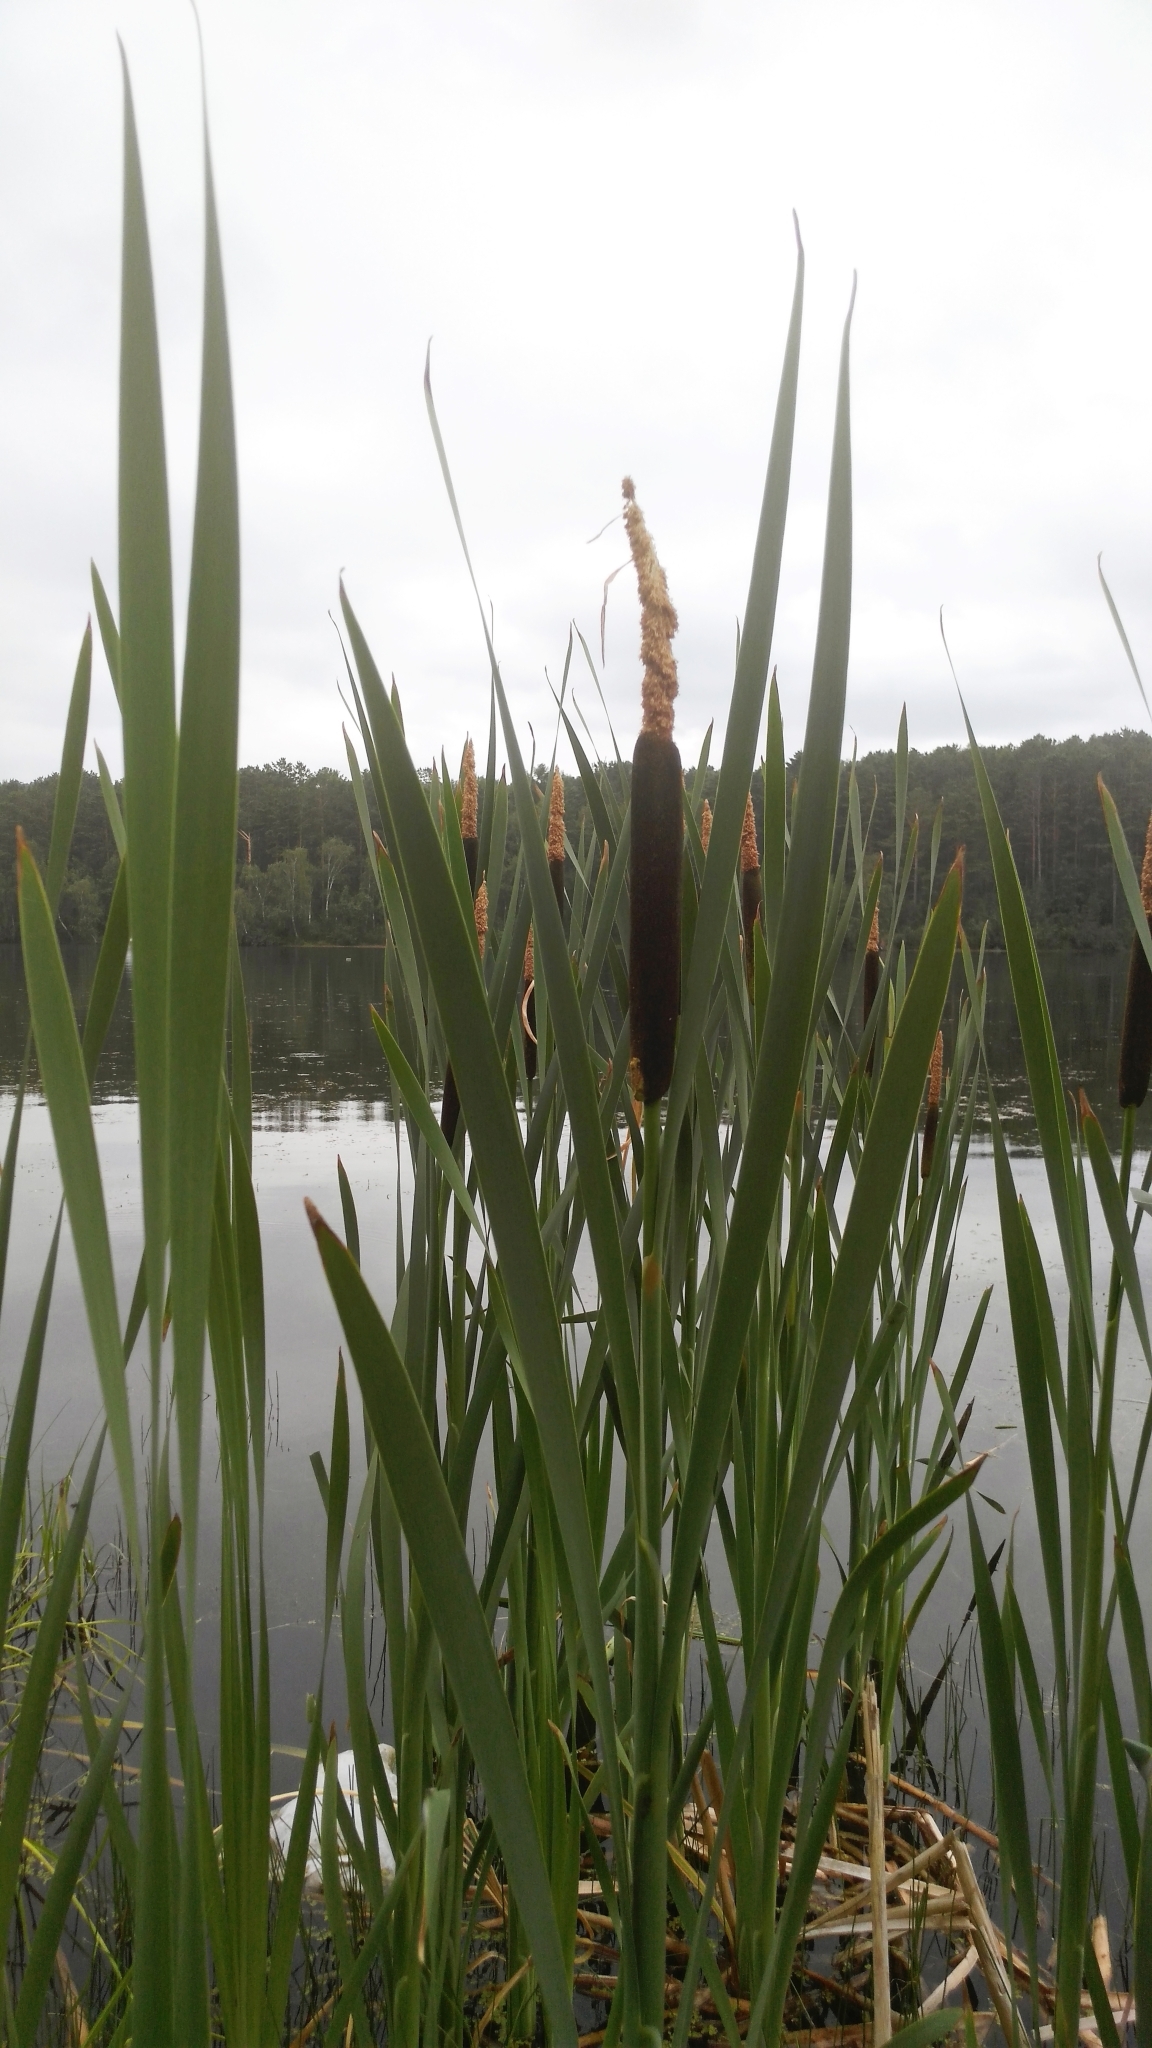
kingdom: Plantae
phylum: Tracheophyta
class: Liliopsida
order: Poales
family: Typhaceae
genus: Typha
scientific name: Typha latifolia
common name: Broadleaf cattail
